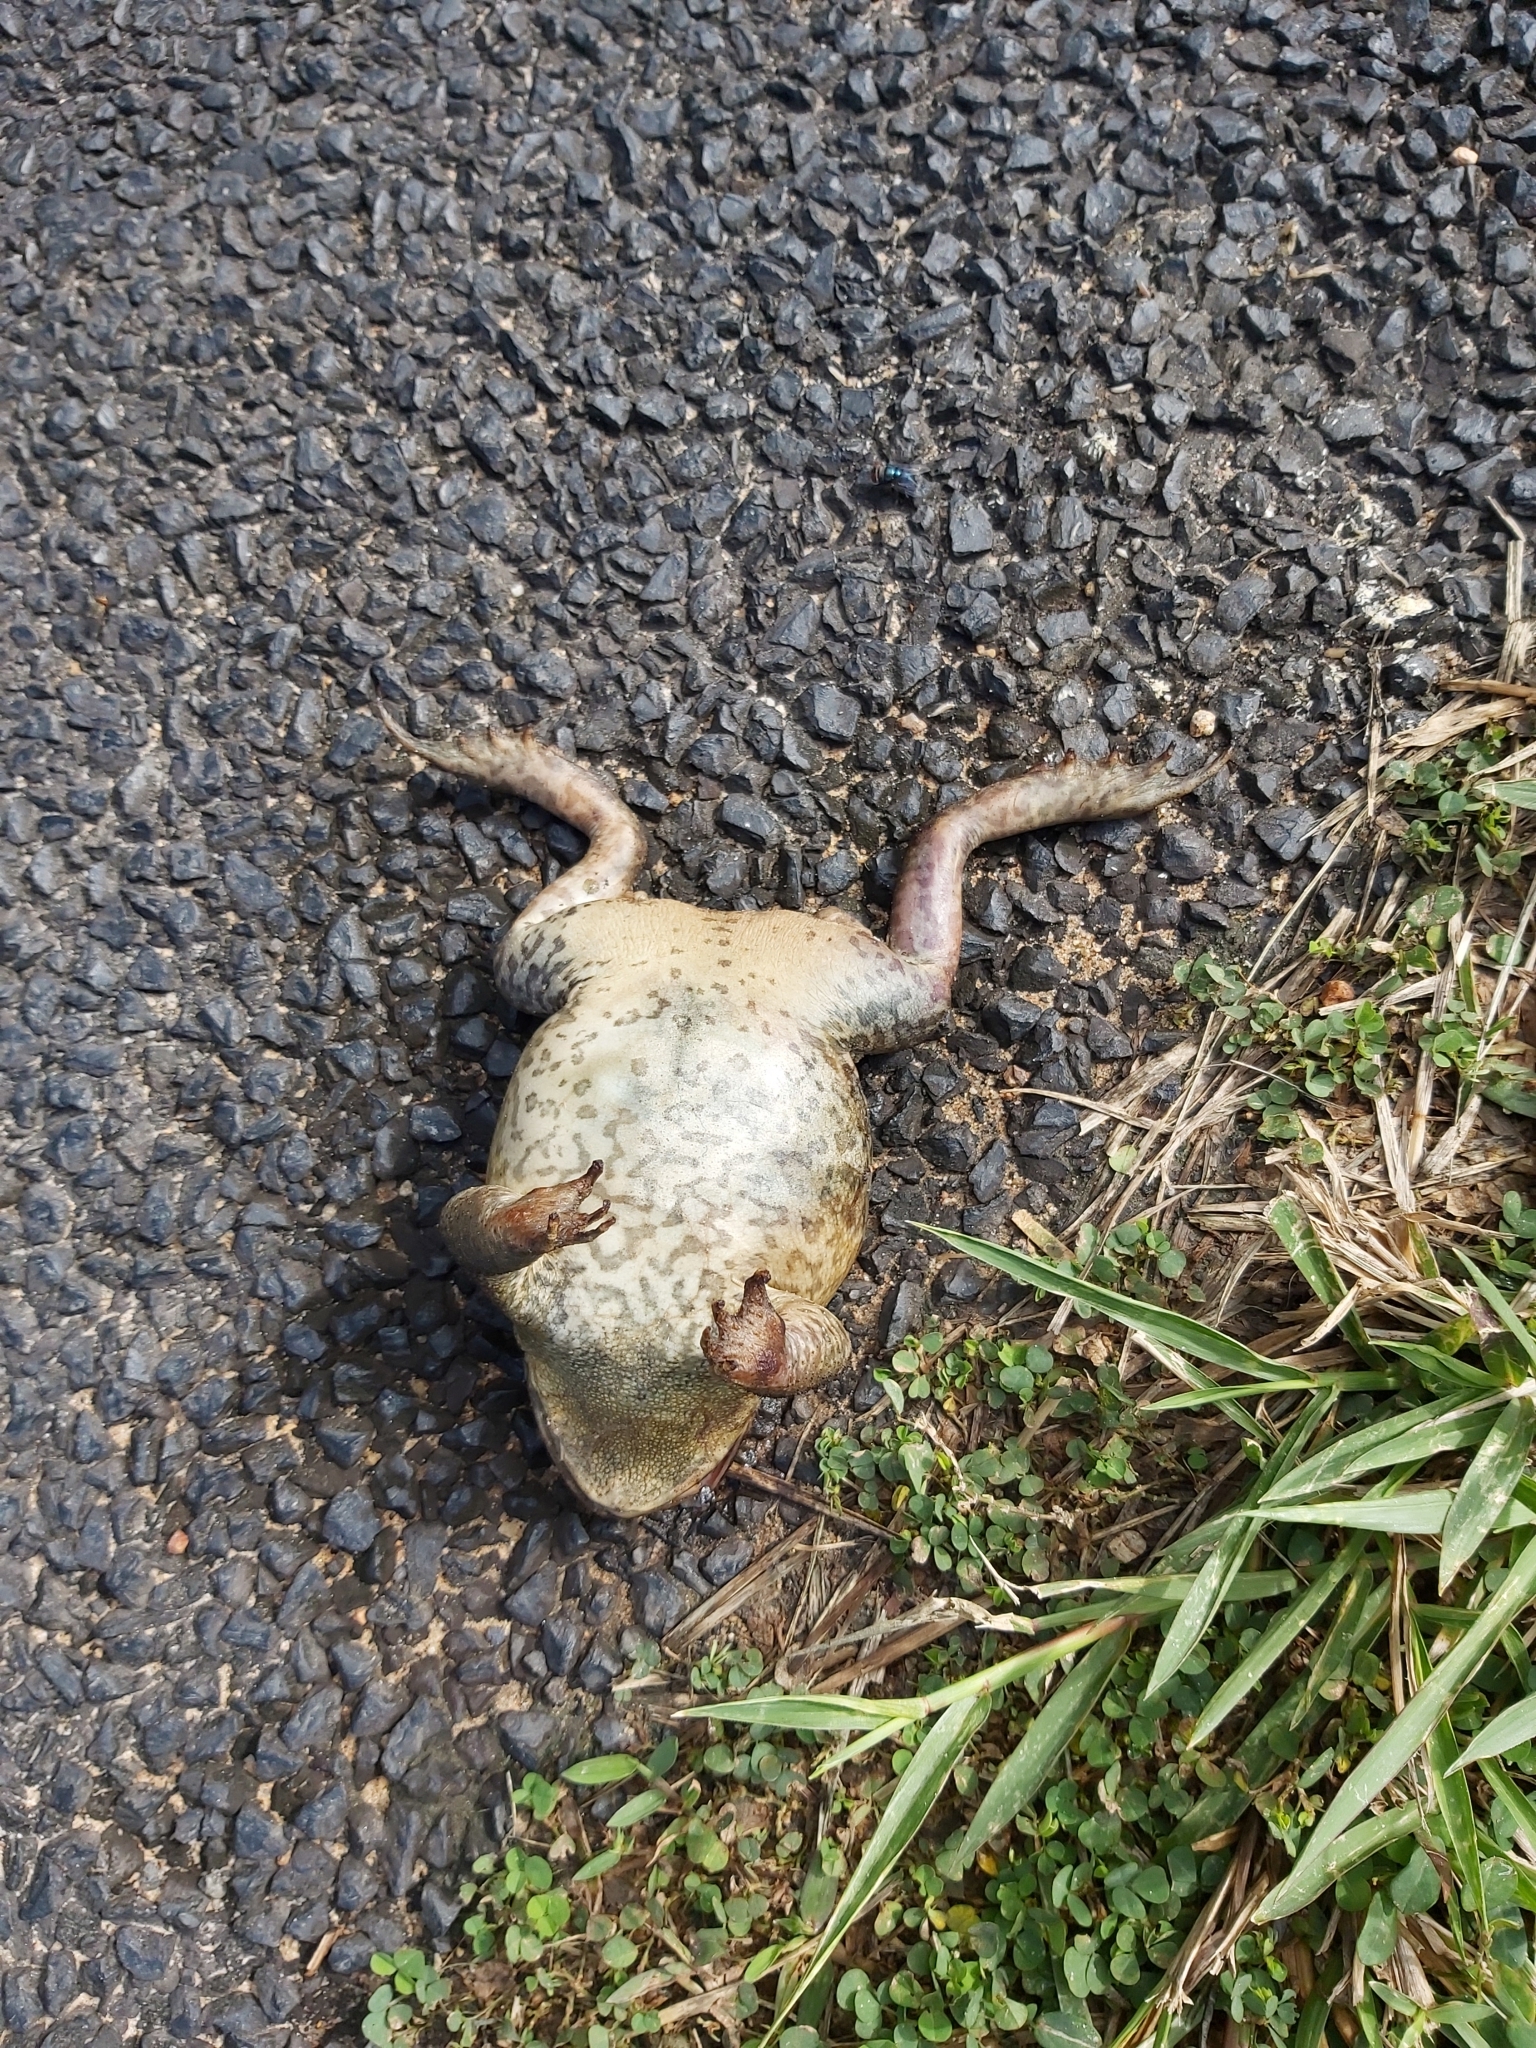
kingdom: Animalia
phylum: Chordata
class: Amphibia
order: Anura
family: Bufonidae
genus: Rhinella
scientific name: Rhinella marina
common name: Cane toad
